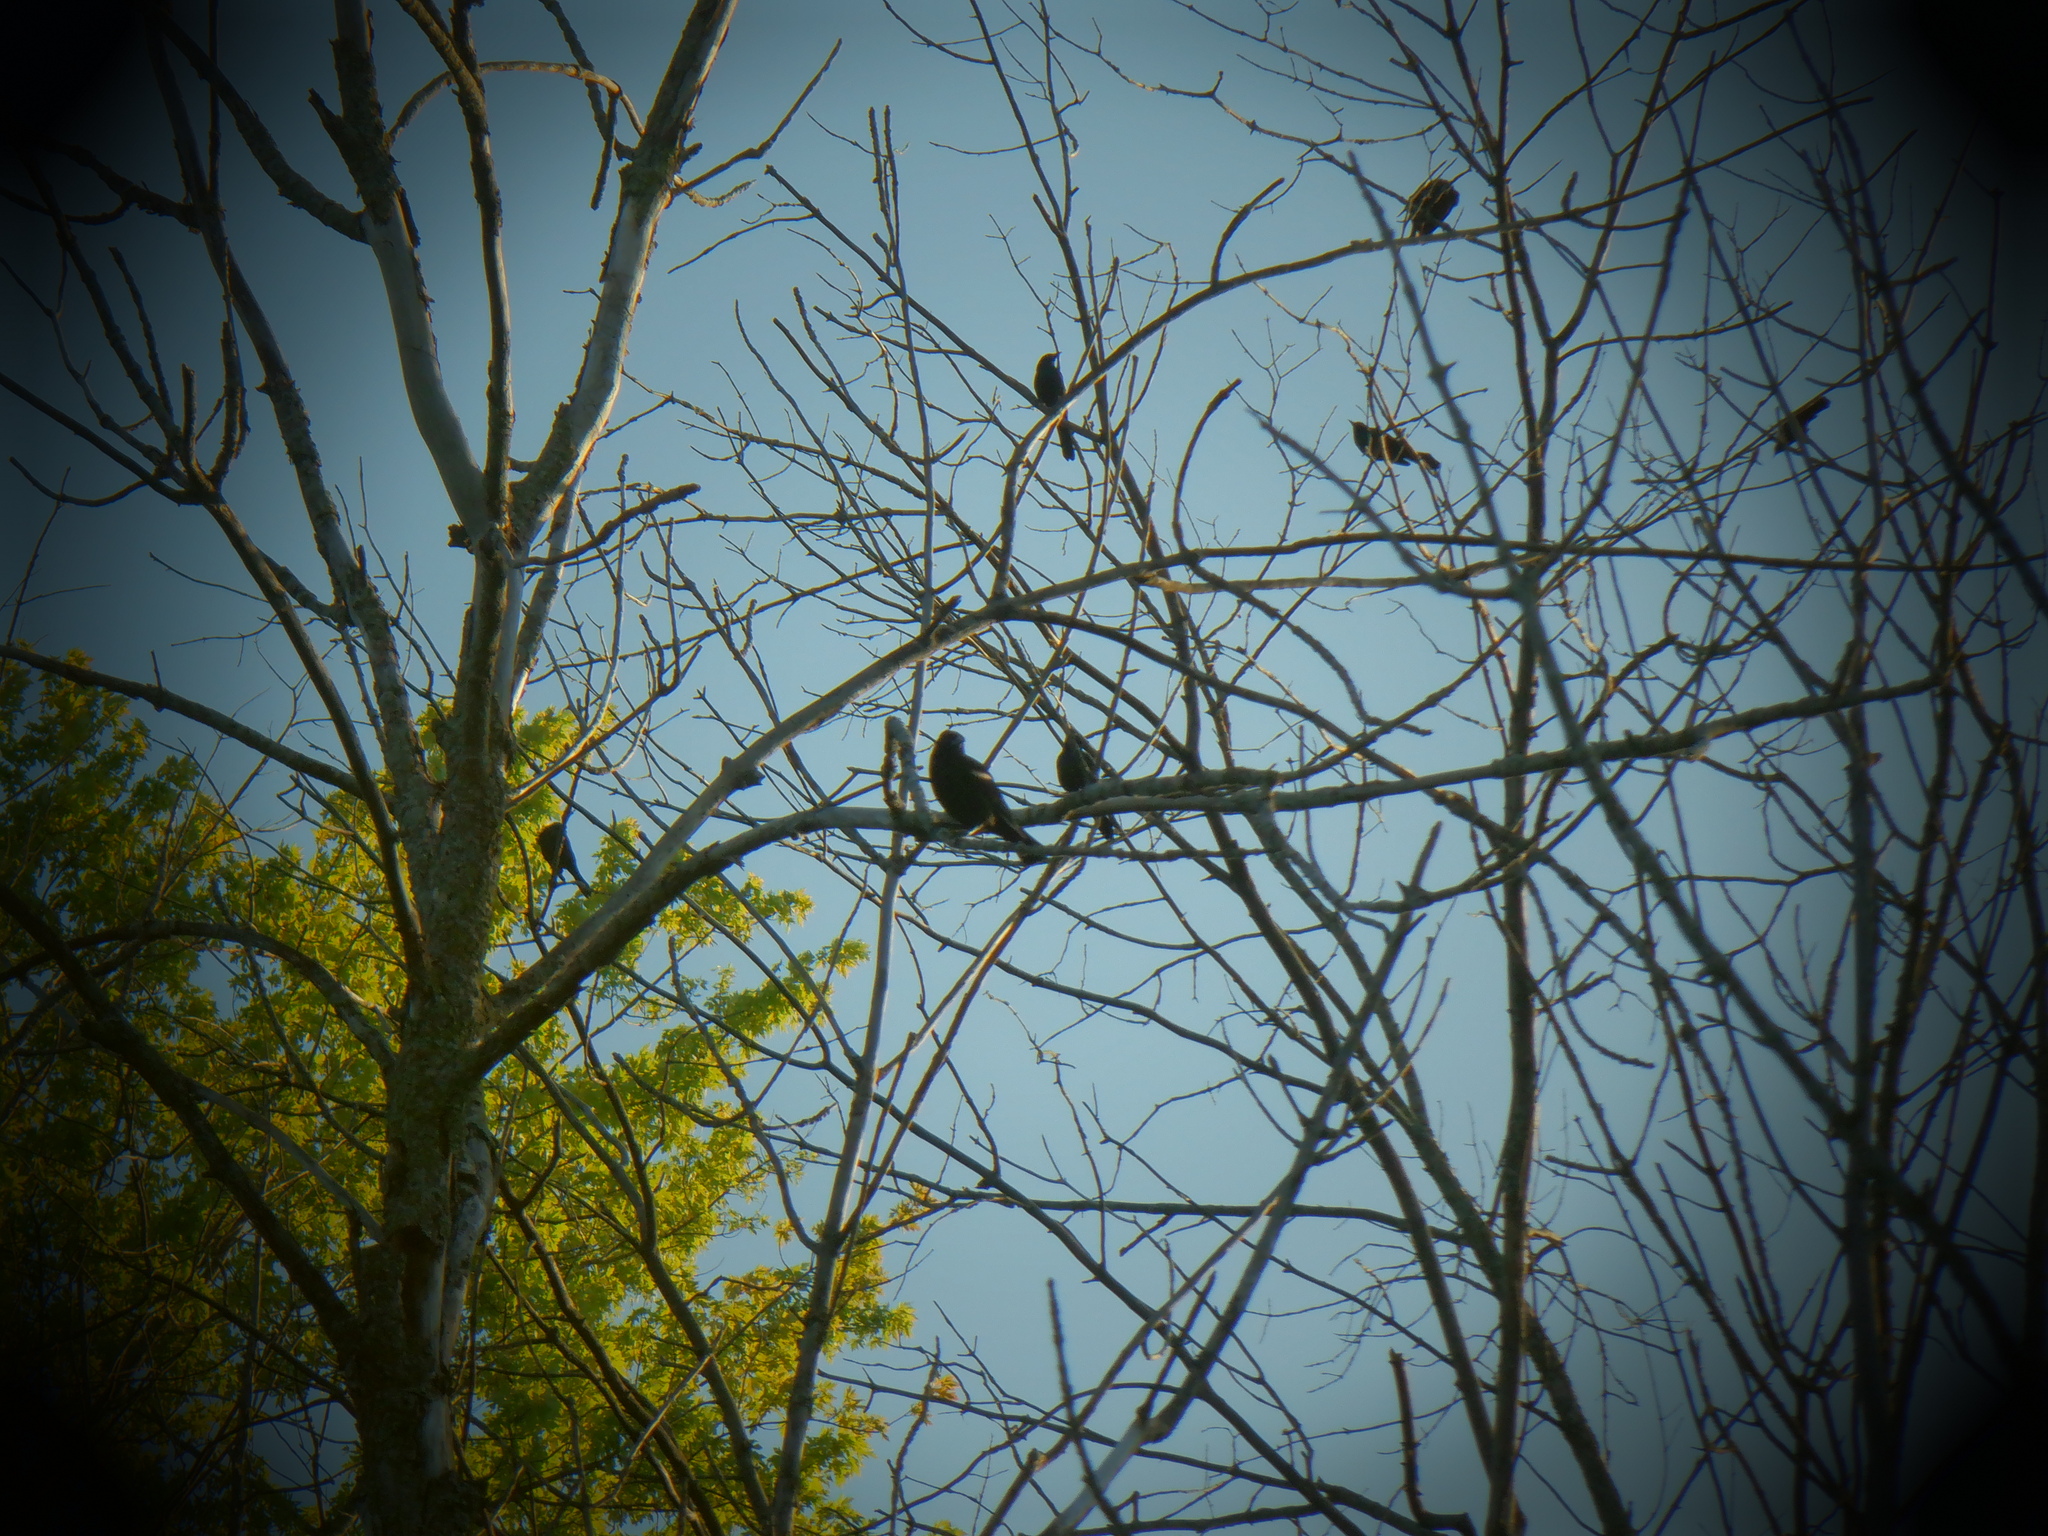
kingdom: Animalia
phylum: Chordata
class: Aves
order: Passeriformes
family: Icteridae
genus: Agelaius
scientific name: Agelaius phoeniceus
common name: Red-winged blackbird
